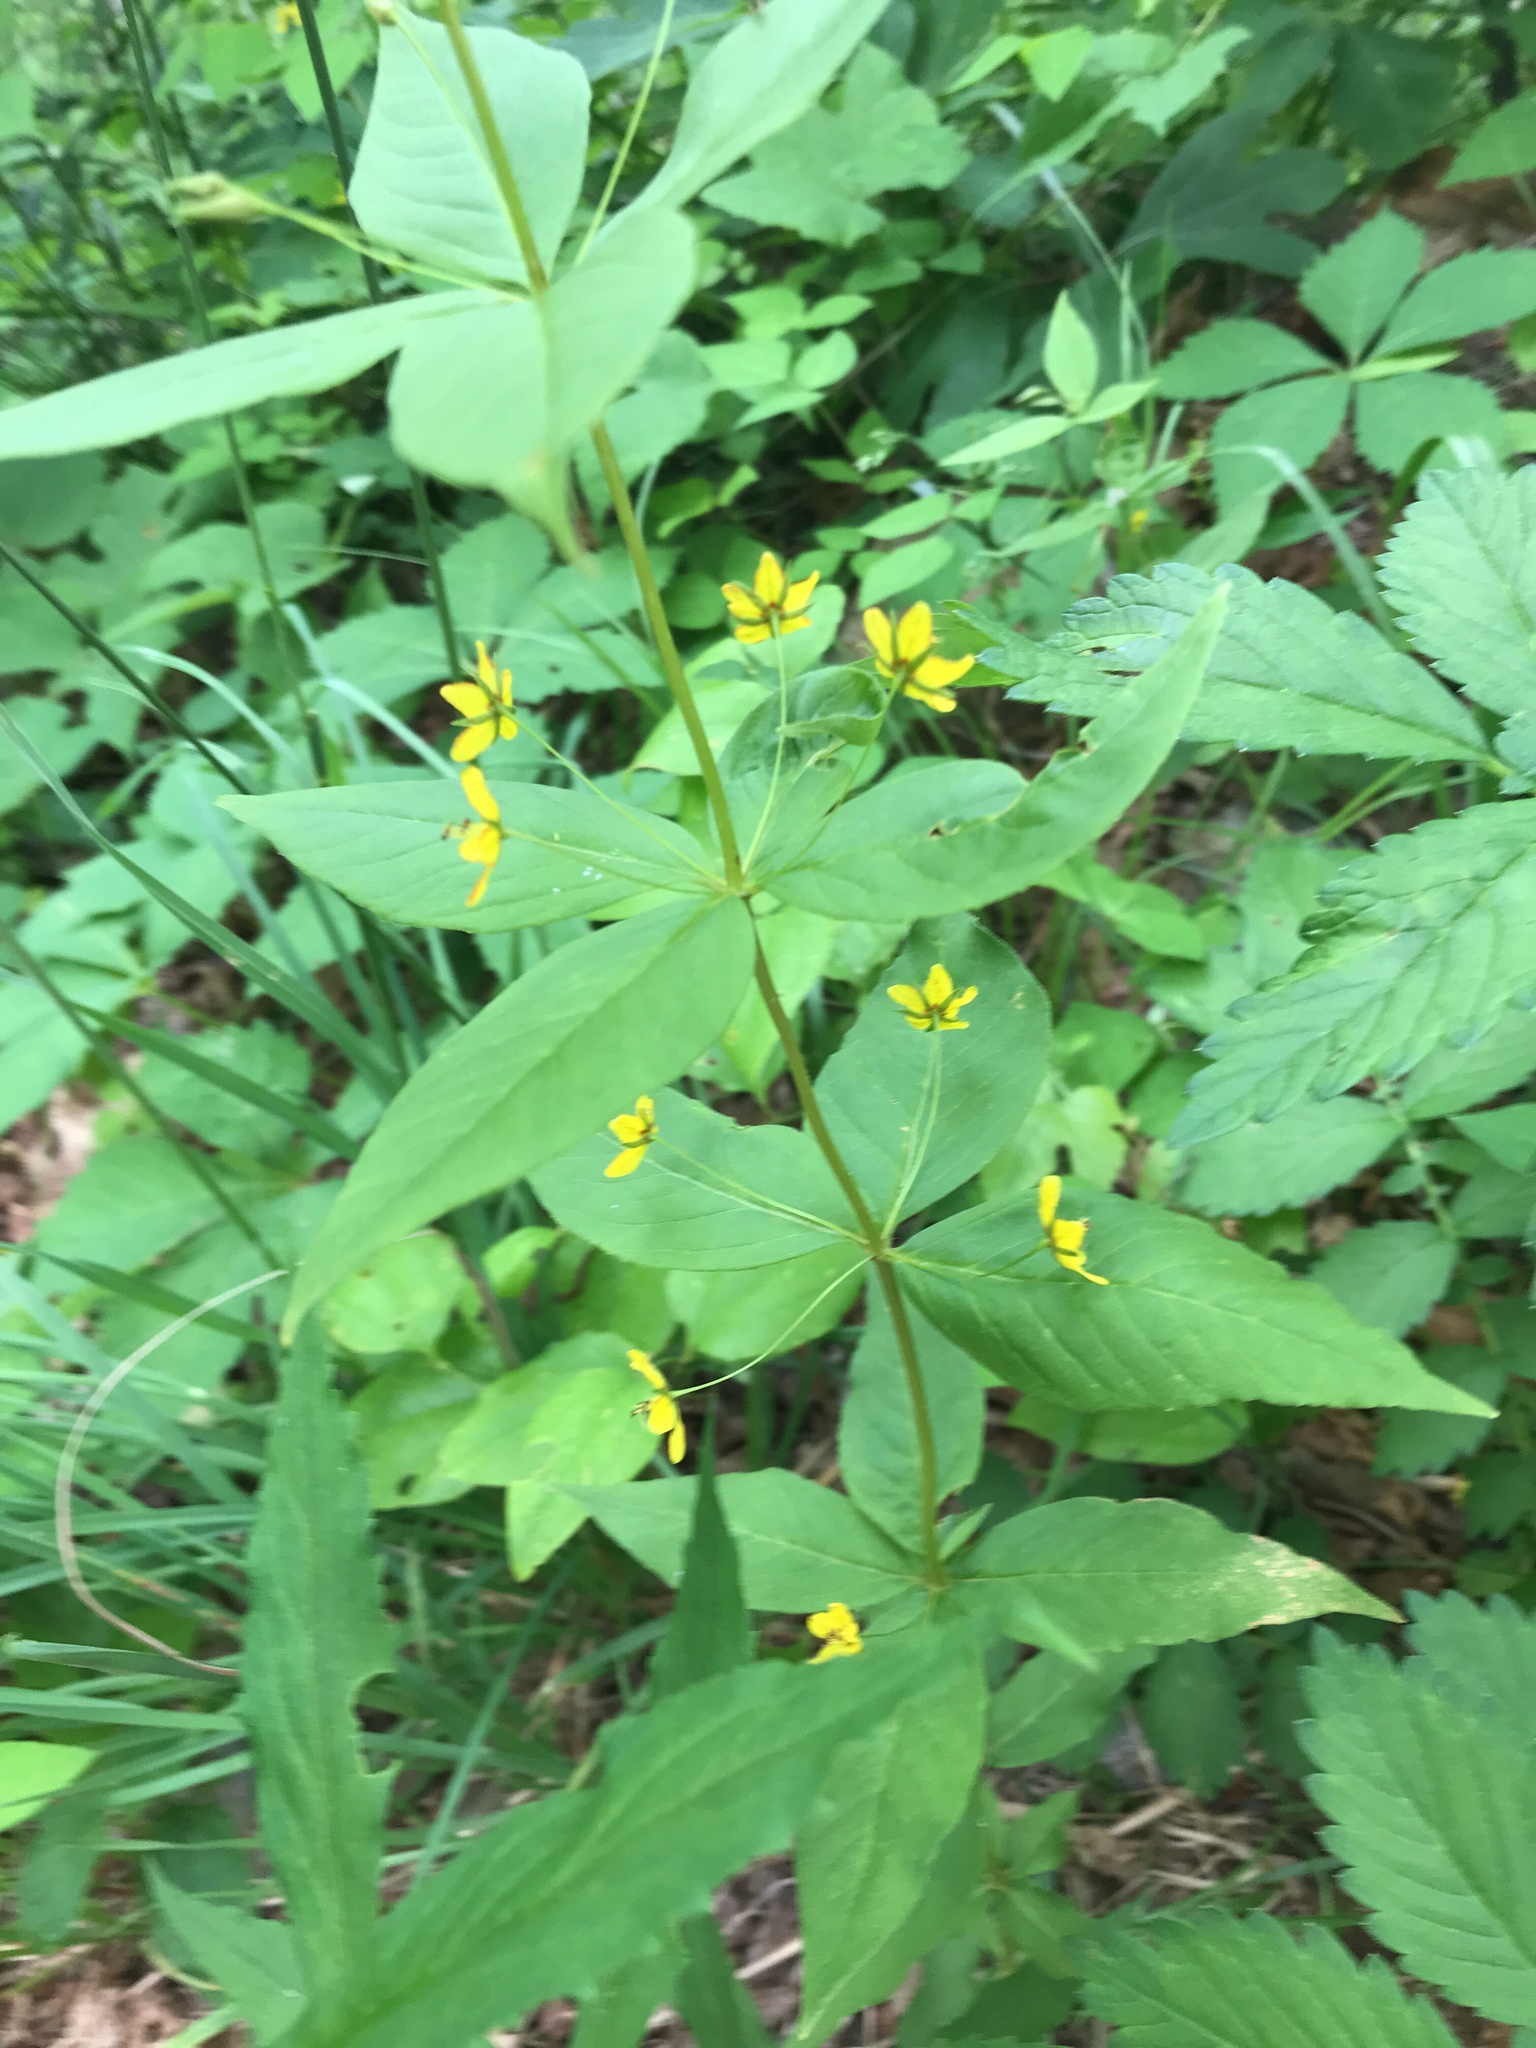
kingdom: Plantae
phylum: Tracheophyta
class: Magnoliopsida
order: Ericales
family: Primulaceae
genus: Lysimachia
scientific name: Lysimachia quadrifolia
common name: Whorled loosestrife
